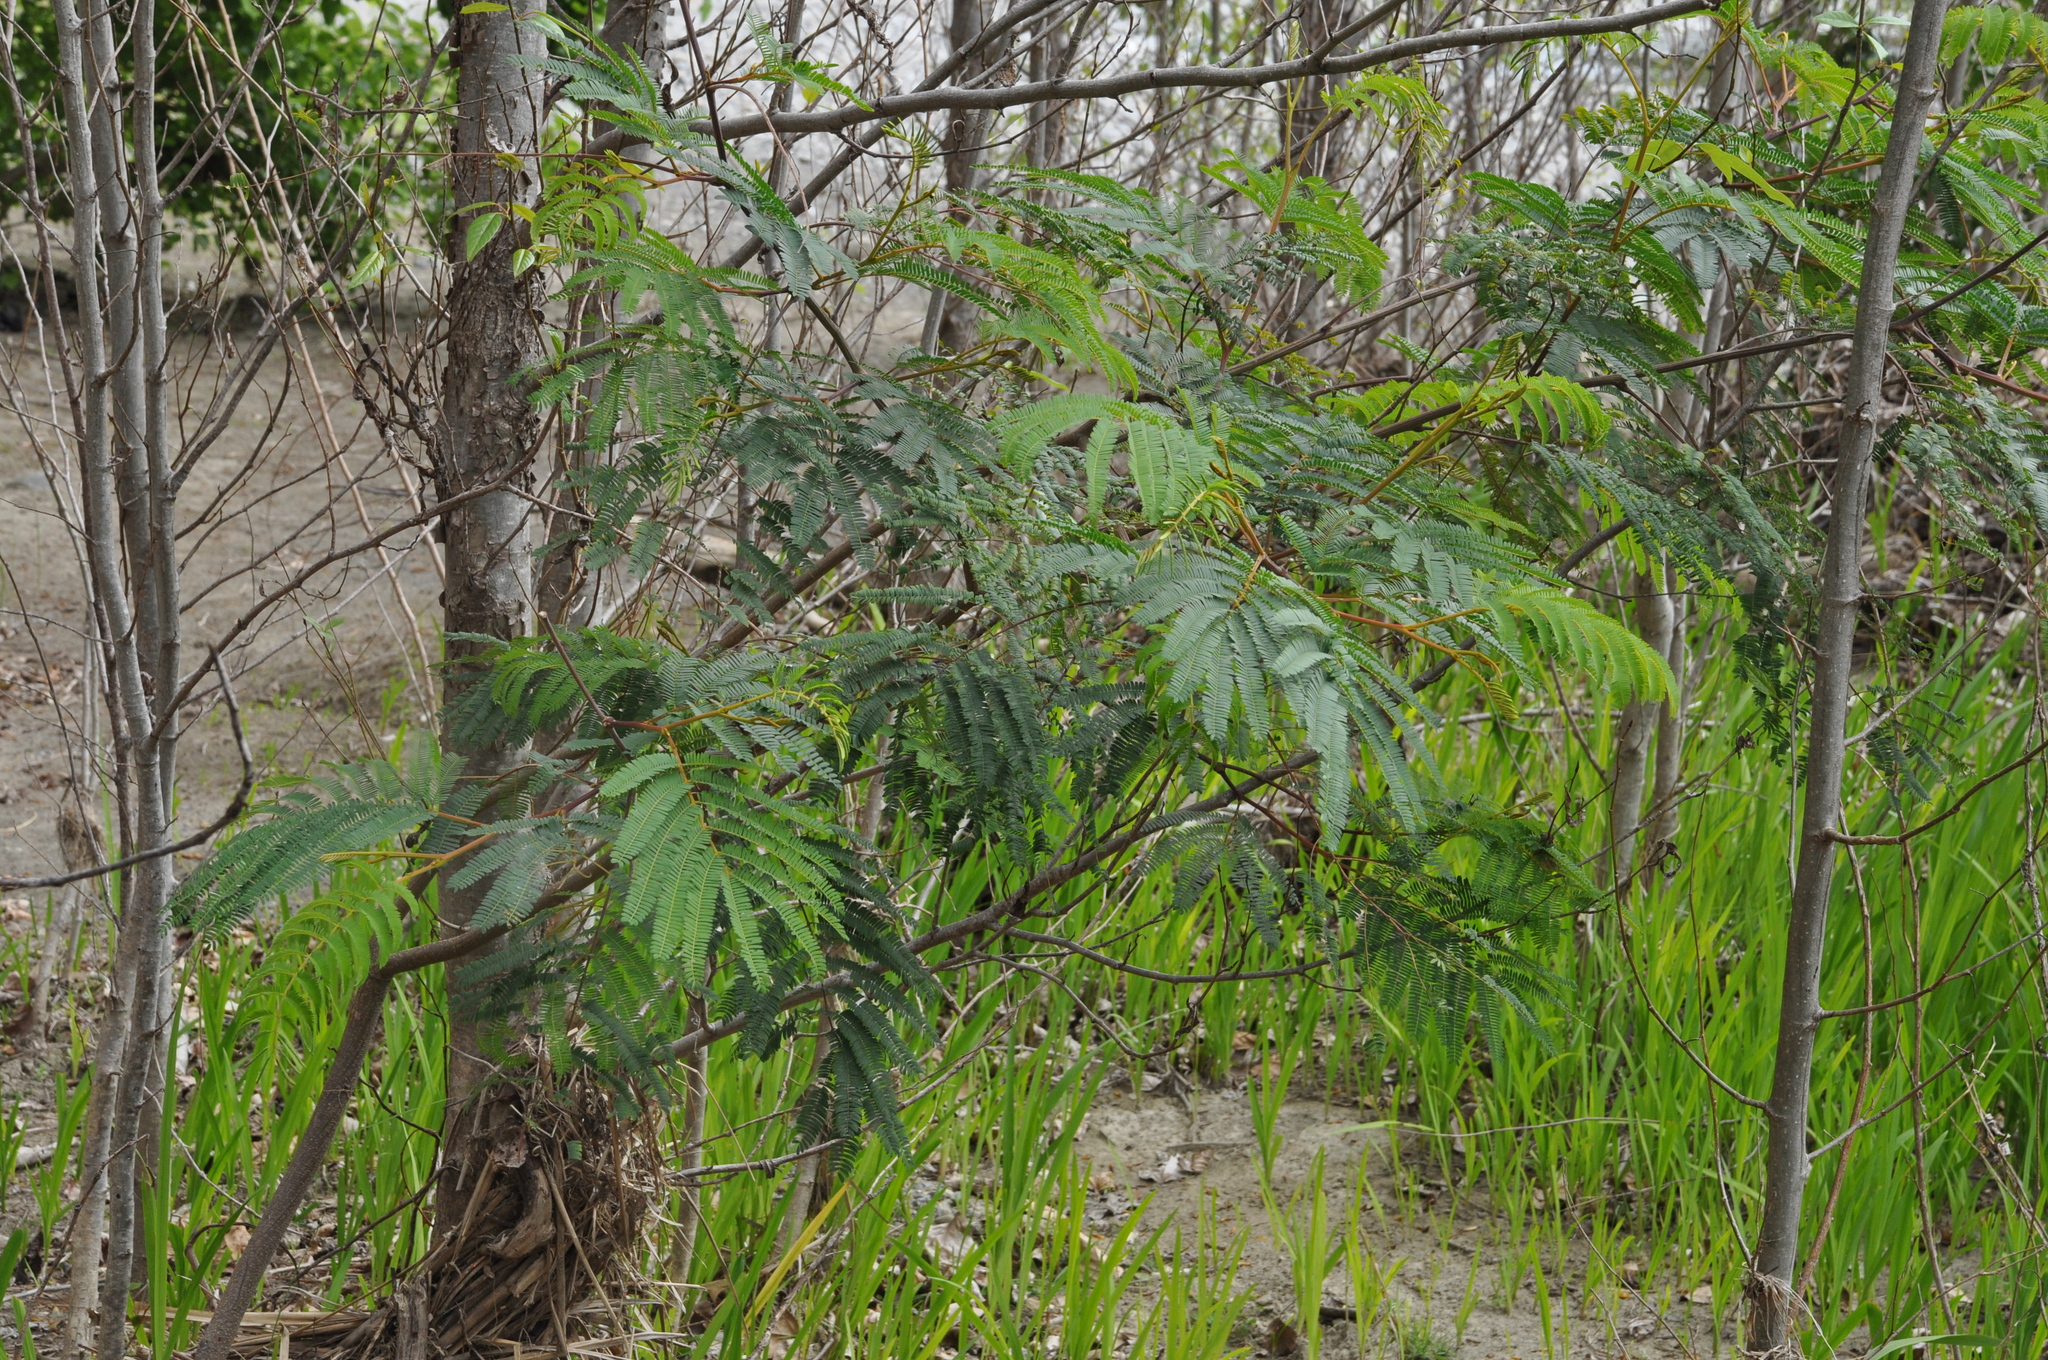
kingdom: Plantae
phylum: Tracheophyta
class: Magnoliopsida
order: Fabales
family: Fabaceae
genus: Paraserianthes
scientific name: Paraserianthes lophantha
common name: Plume albizia
